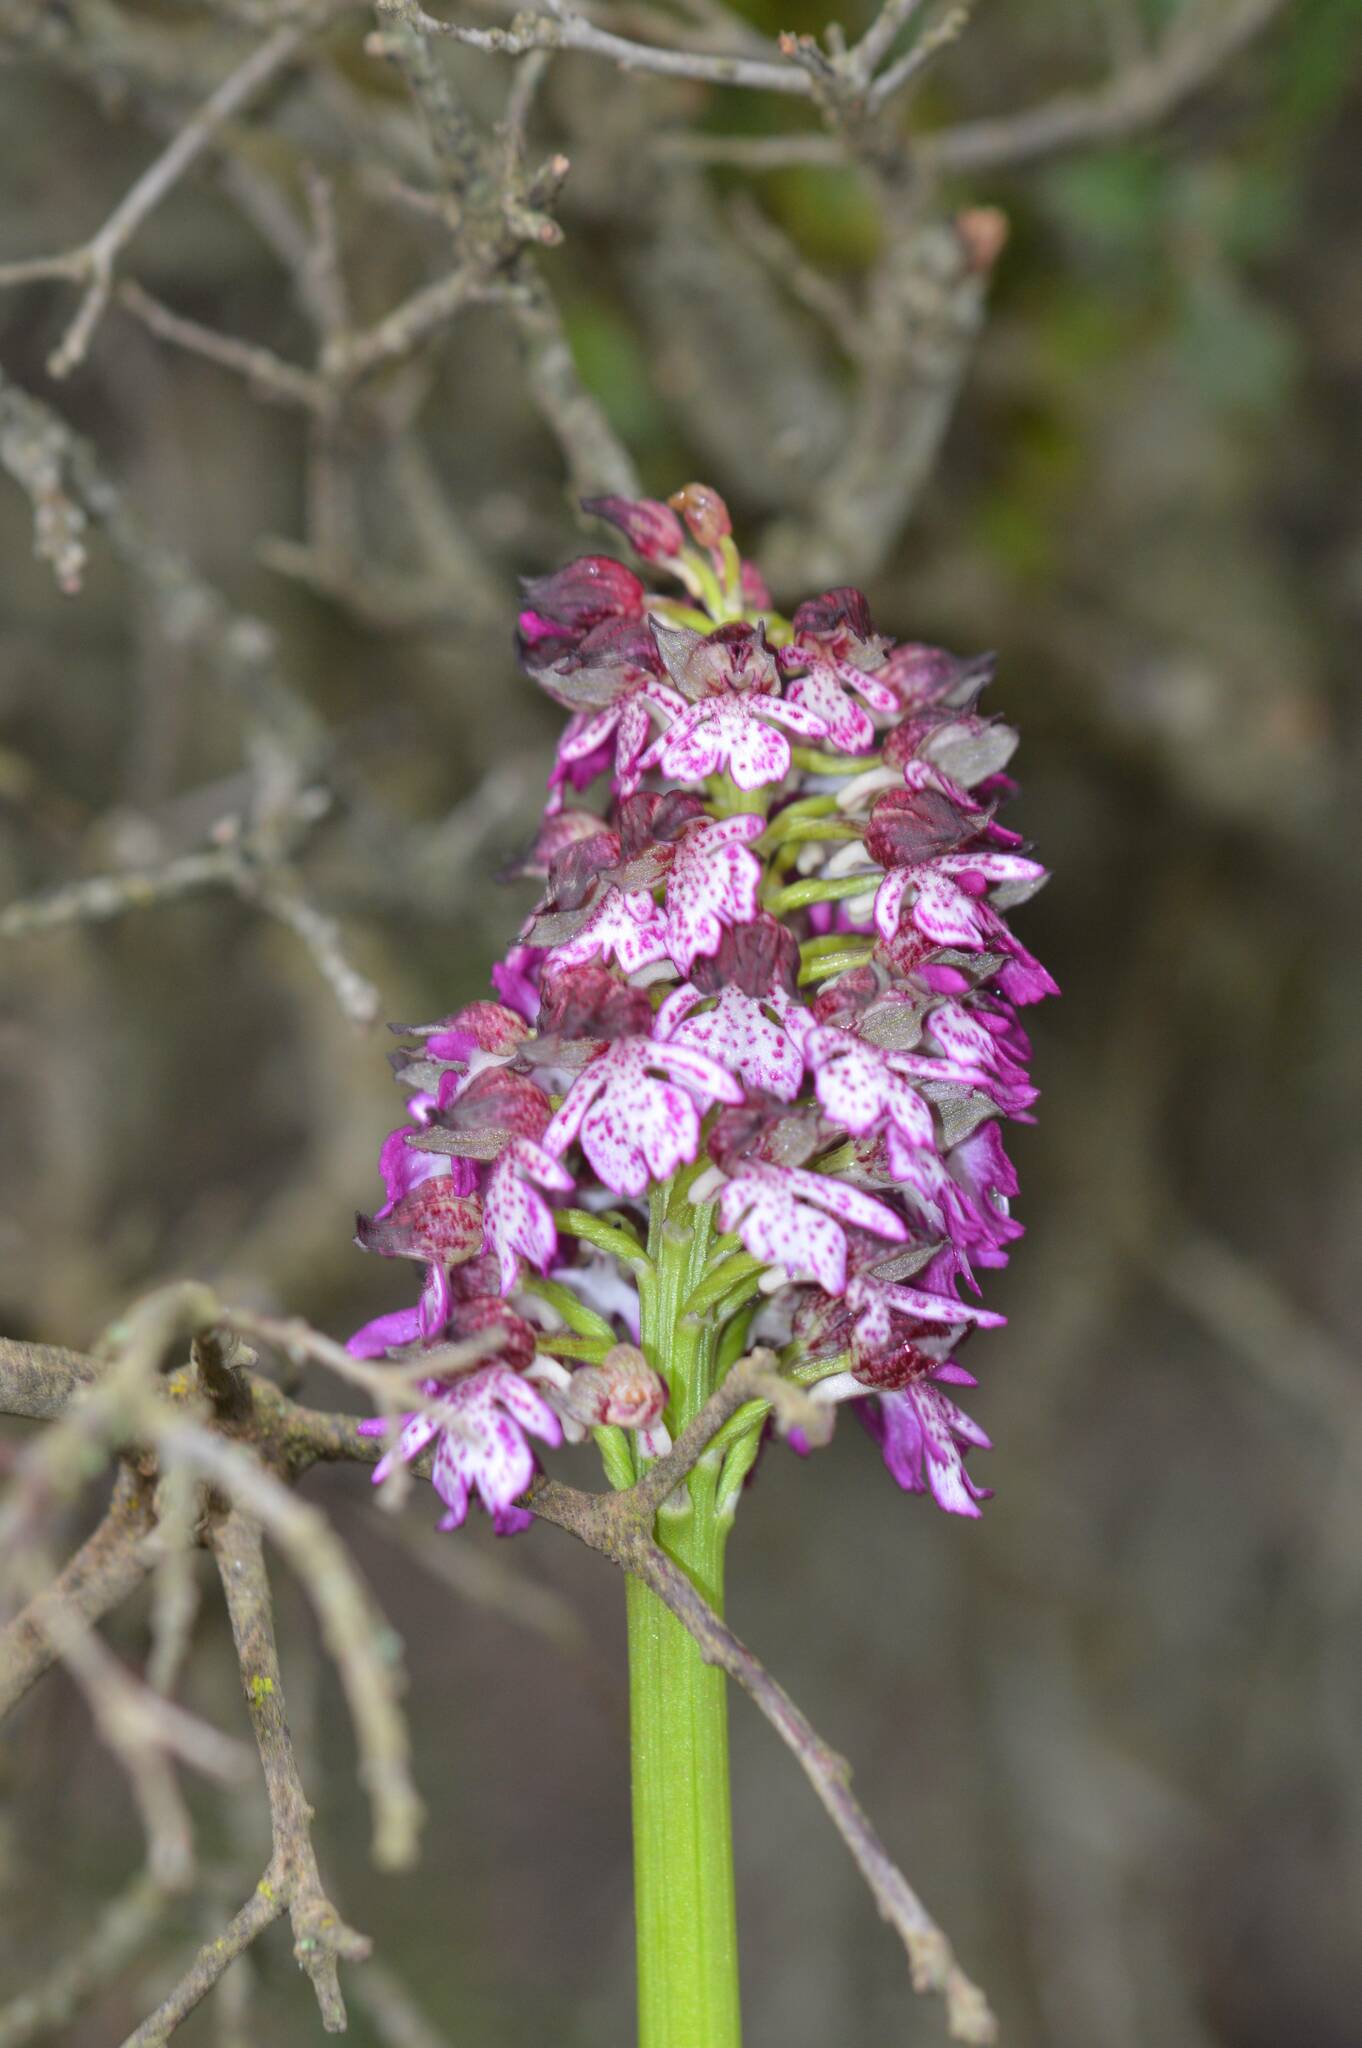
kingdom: Plantae
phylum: Tracheophyta
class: Liliopsida
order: Asparagales
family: Orchidaceae
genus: Orchis
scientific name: Orchis purpurea
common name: Lady orchid
